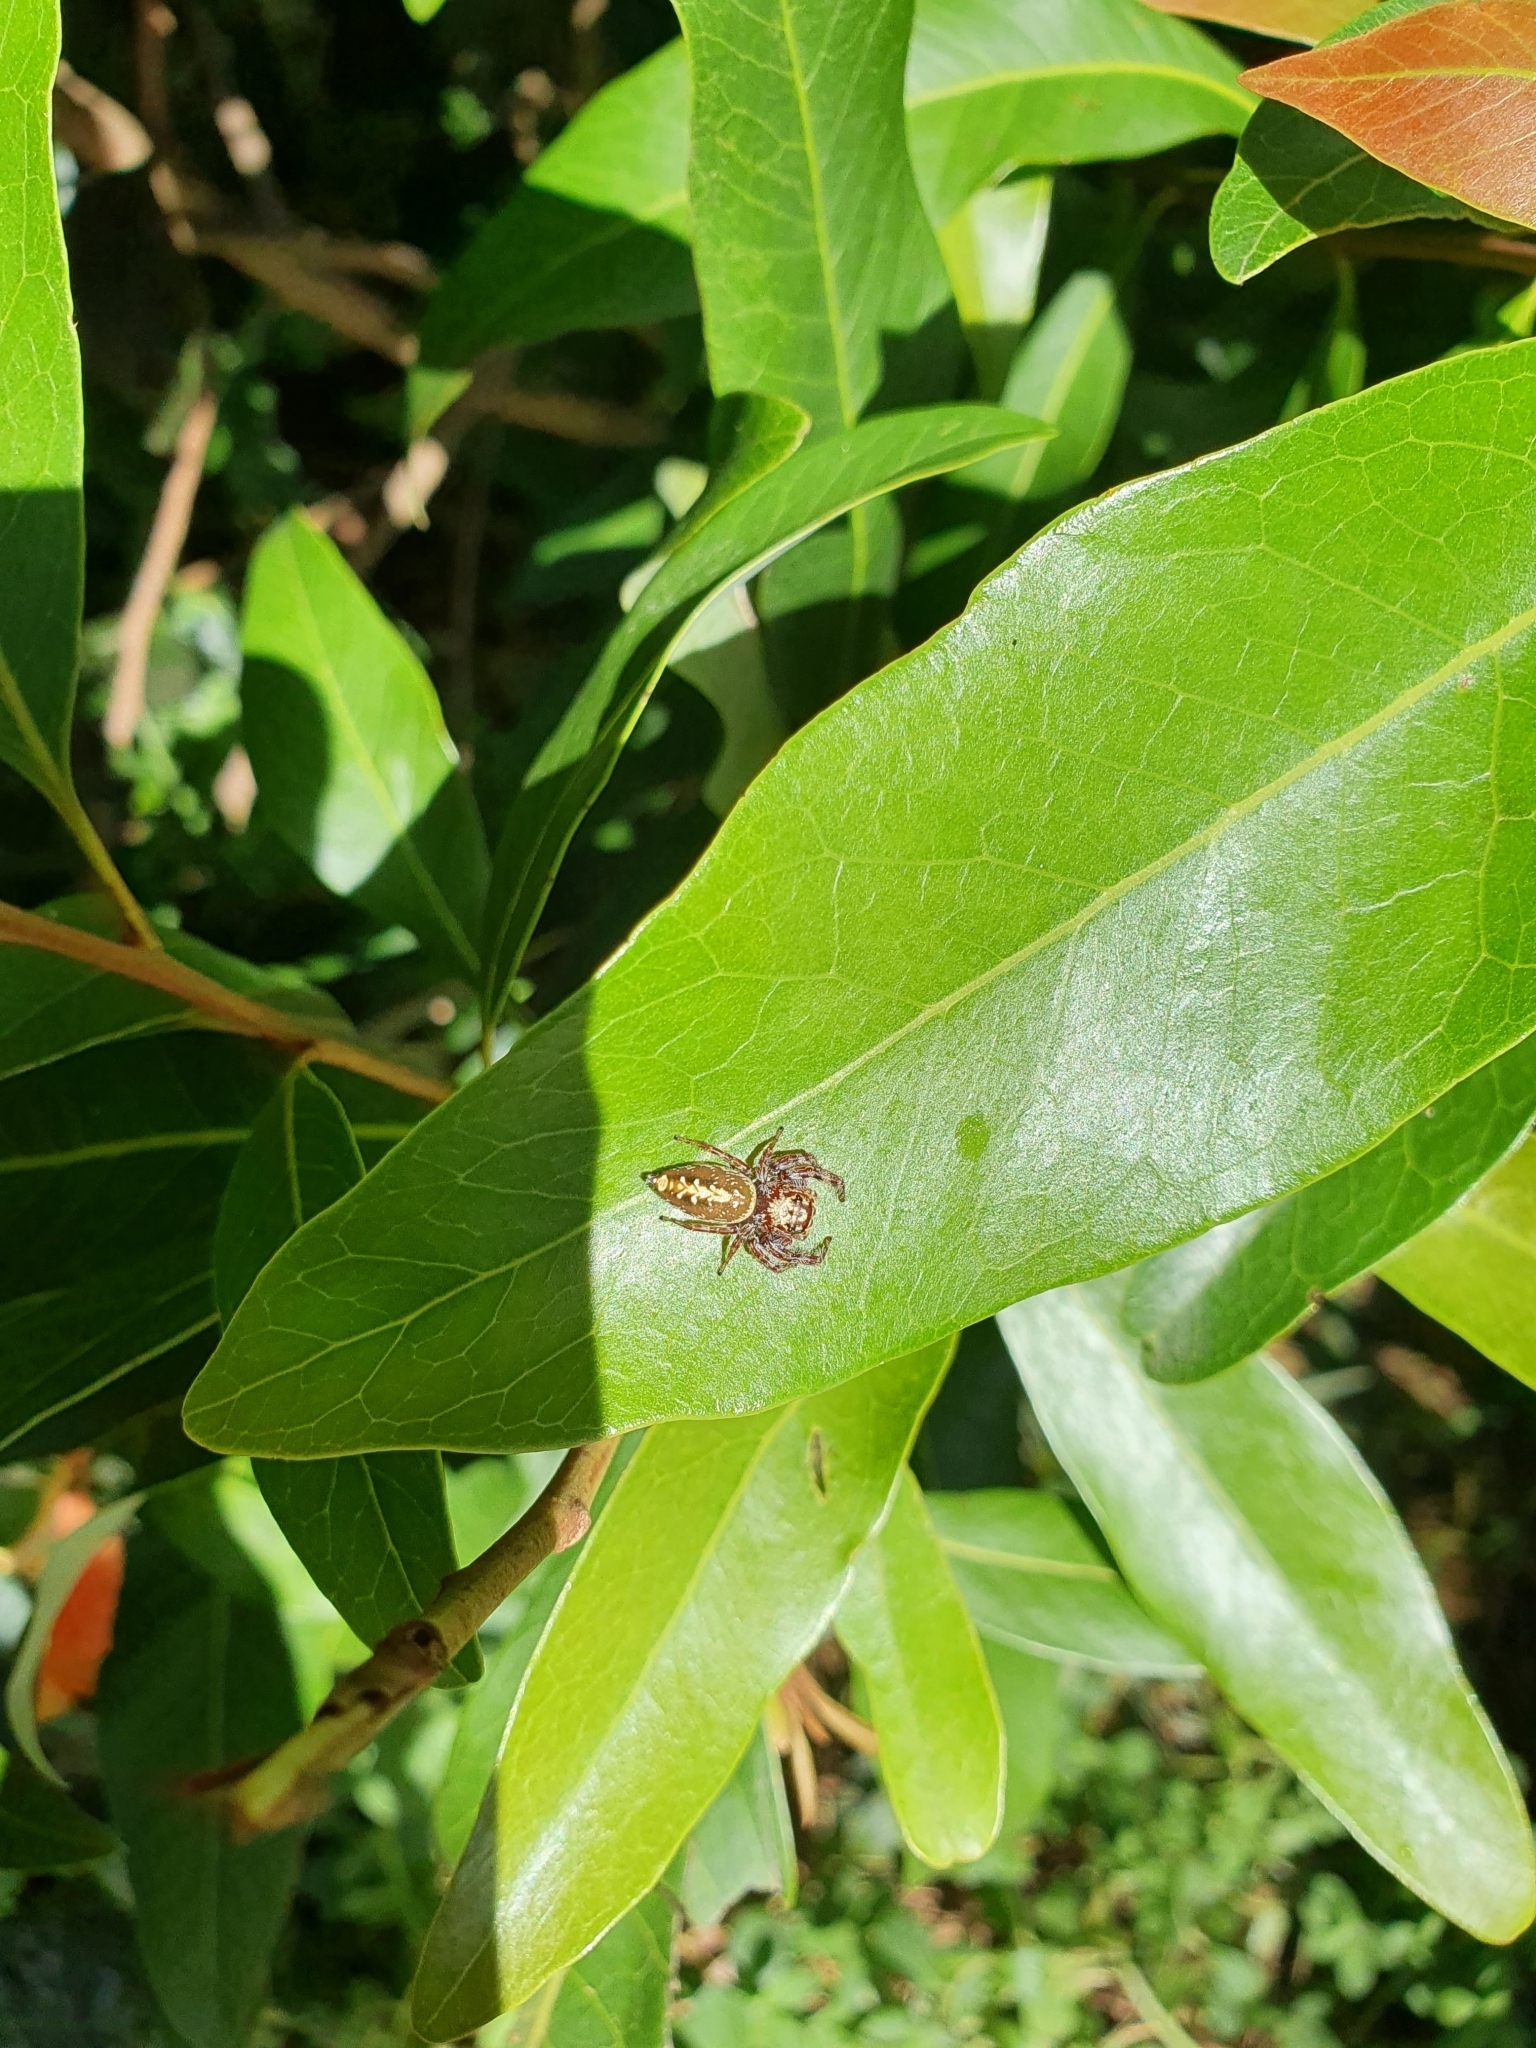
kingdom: Animalia
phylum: Arthropoda
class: Arachnida
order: Araneae
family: Salticidae
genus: Opisthoncus
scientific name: Opisthoncus quadratarius
